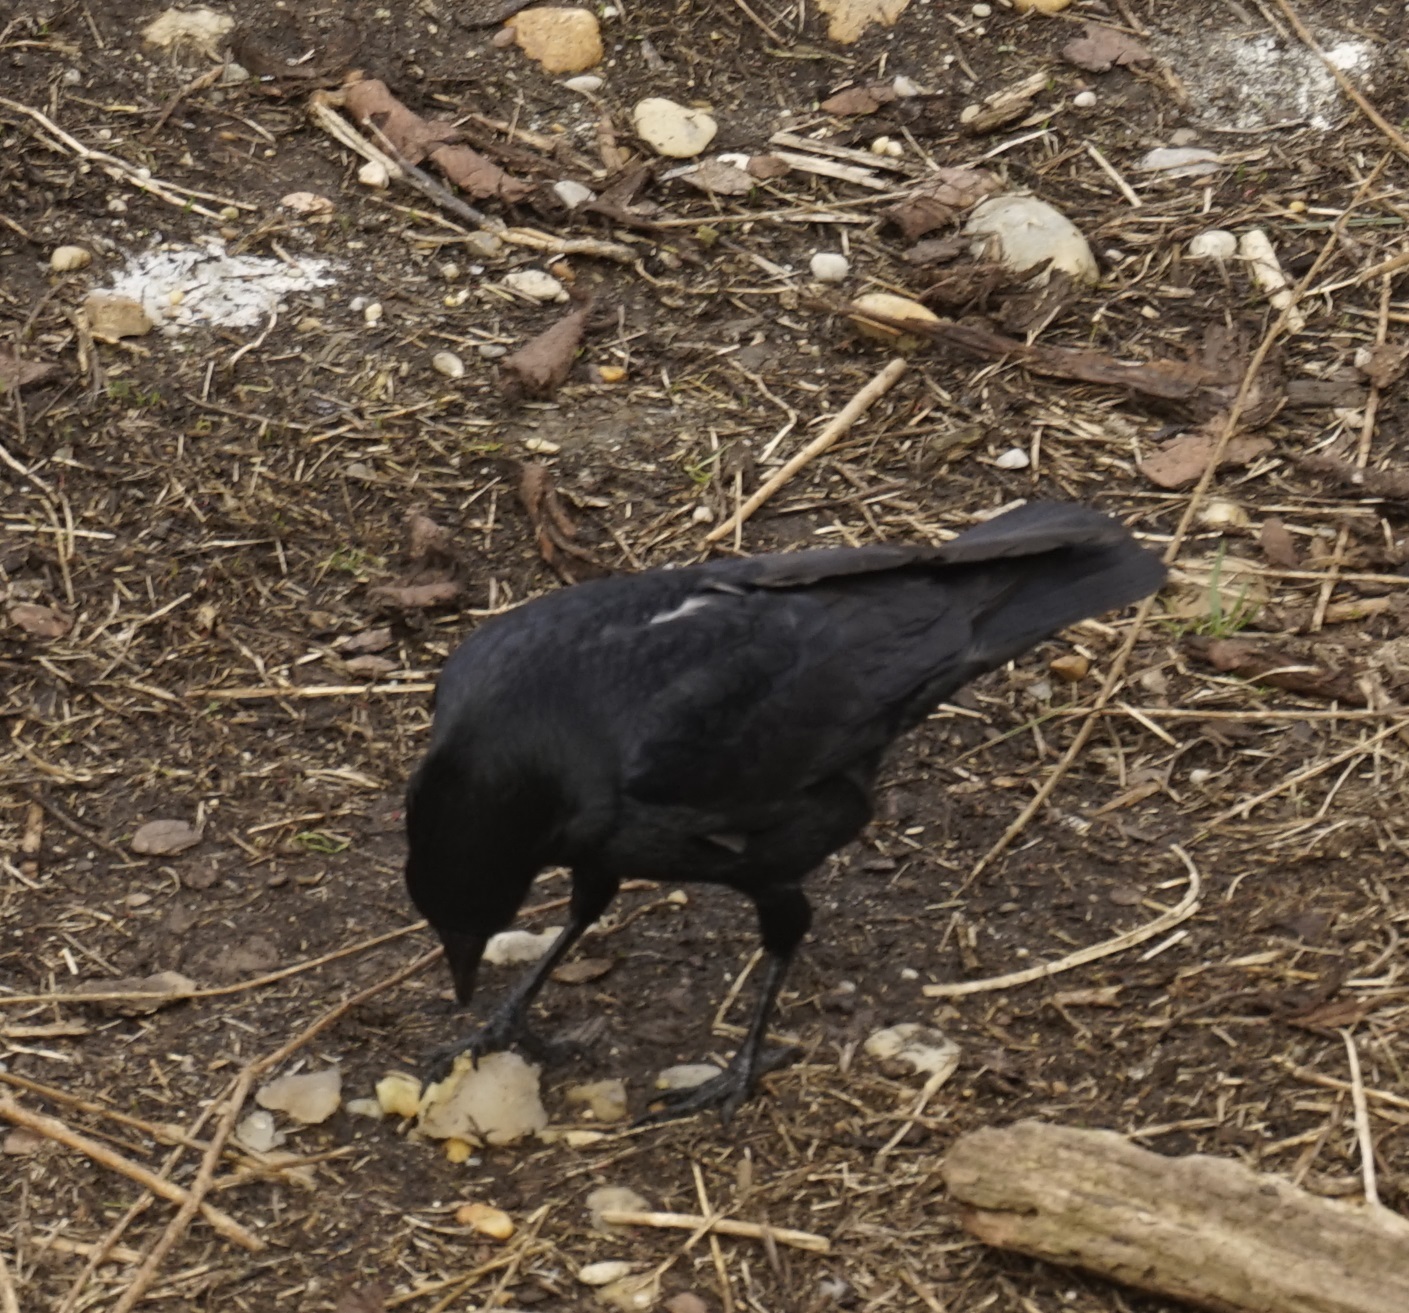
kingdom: Animalia
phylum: Chordata
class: Aves
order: Passeriformes
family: Corvidae
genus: Corvus
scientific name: Corvus corone
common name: Carrion crow
